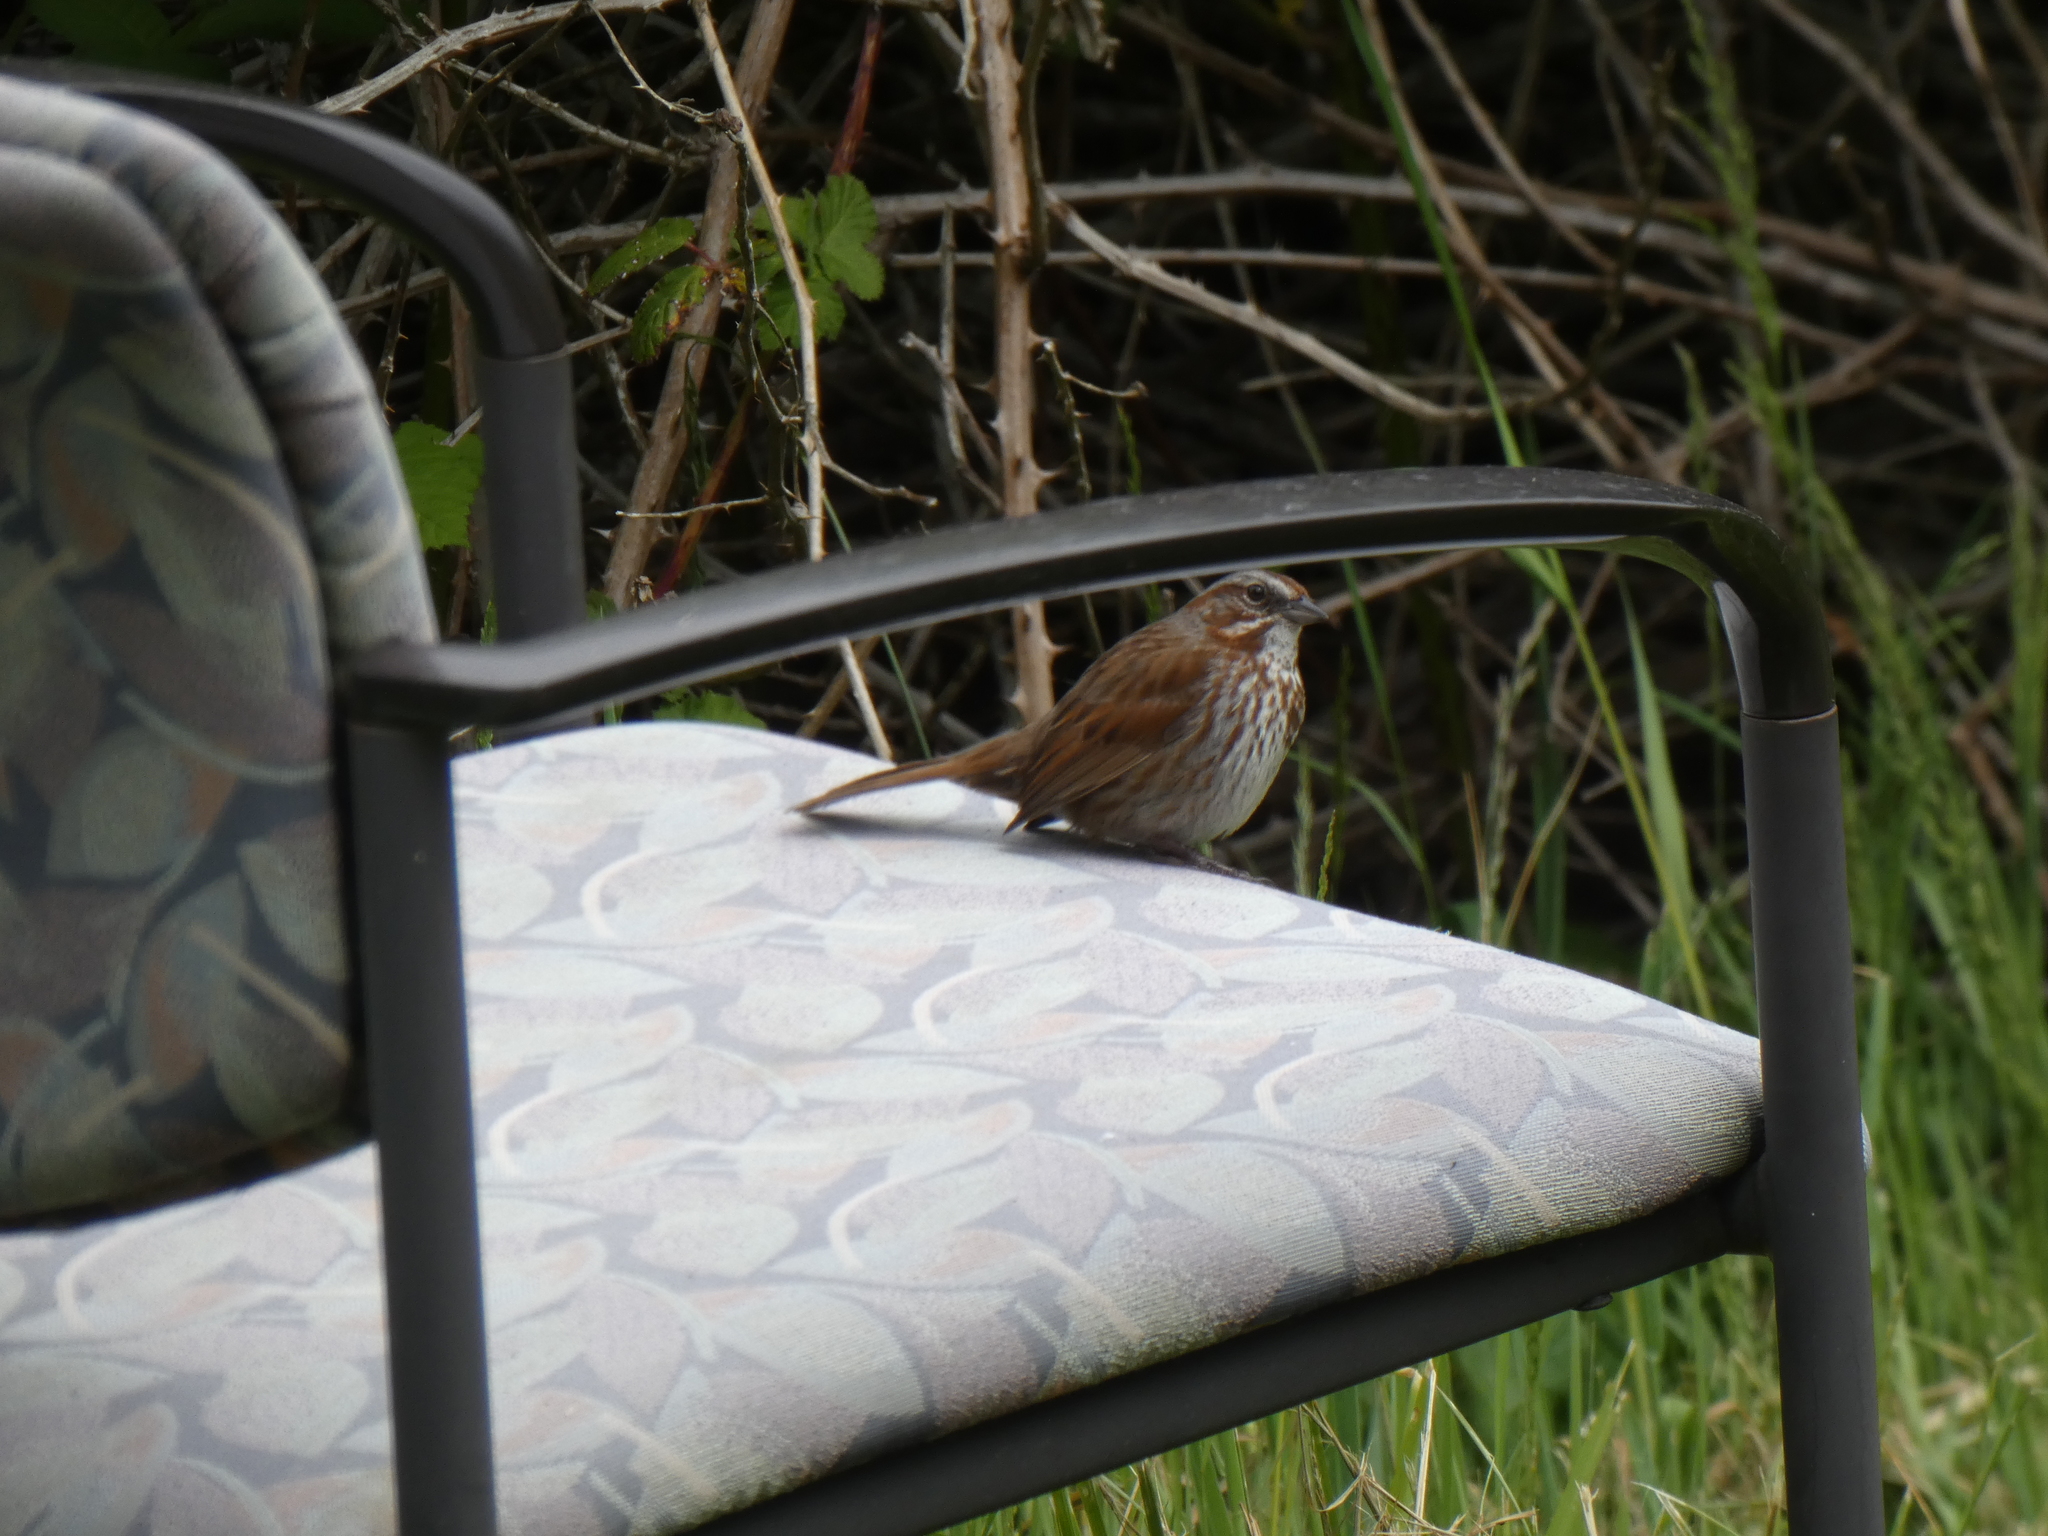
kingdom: Animalia
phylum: Chordata
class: Aves
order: Passeriformes
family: Passerellidae
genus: Melospiza
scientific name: Melospiza melodia
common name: Song sparrow
